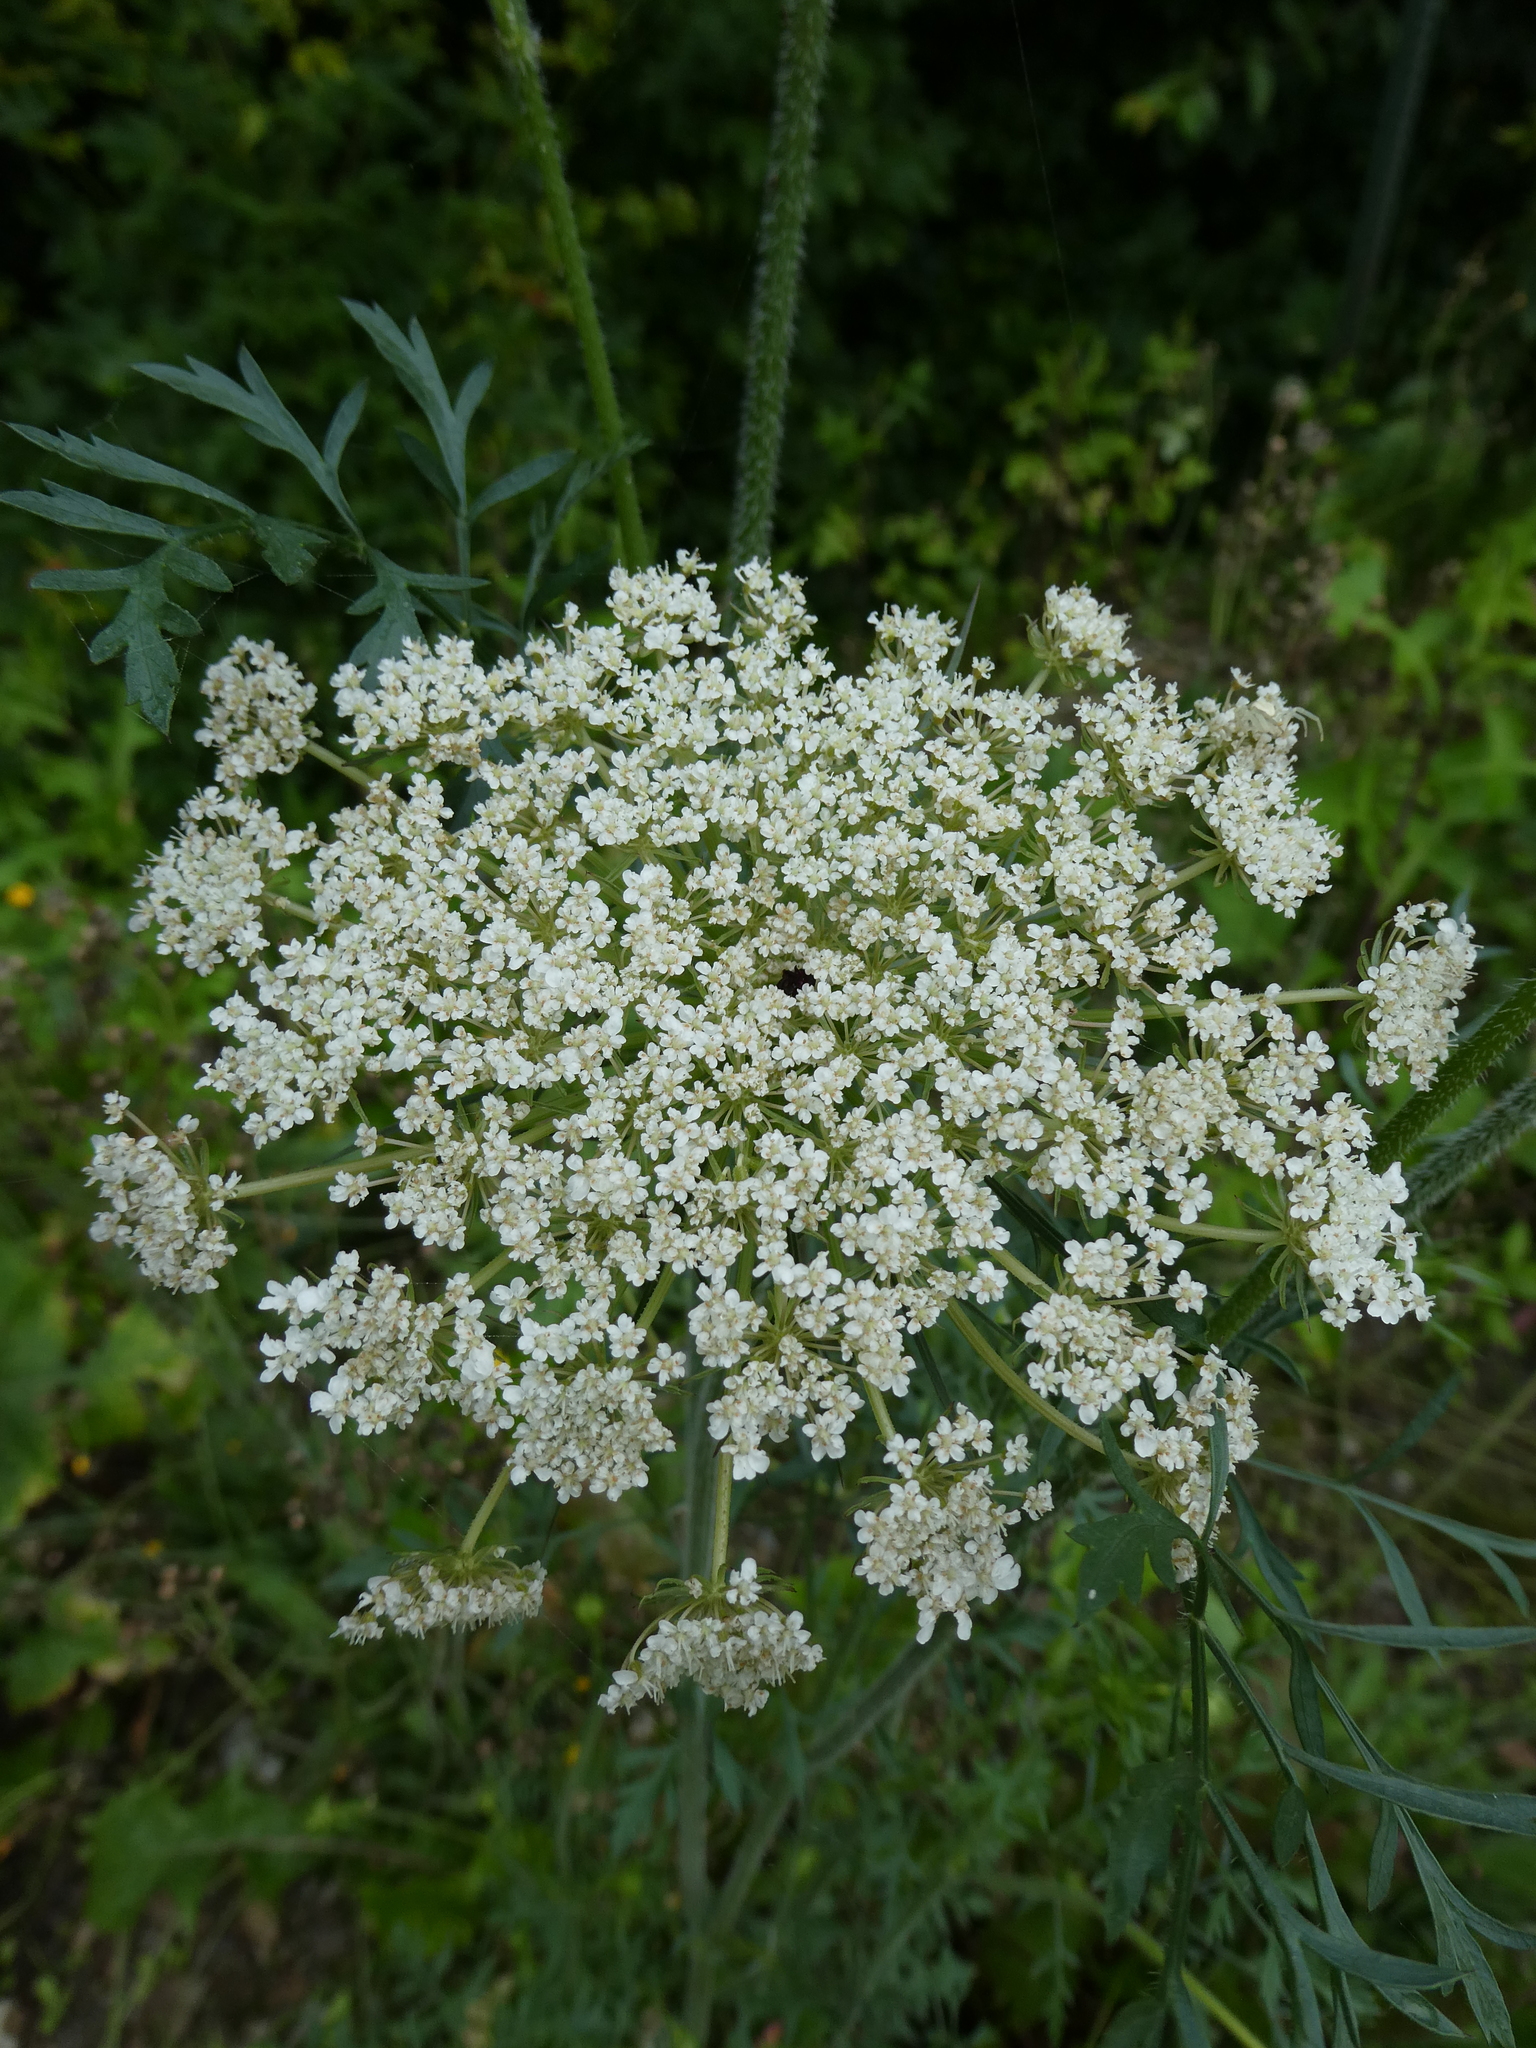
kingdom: Plantae
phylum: Tracheophyta
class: Magnoliopsida
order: Apiales
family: Apiaceae
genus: Daucus
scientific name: Daucus carota
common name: Wild carrot
